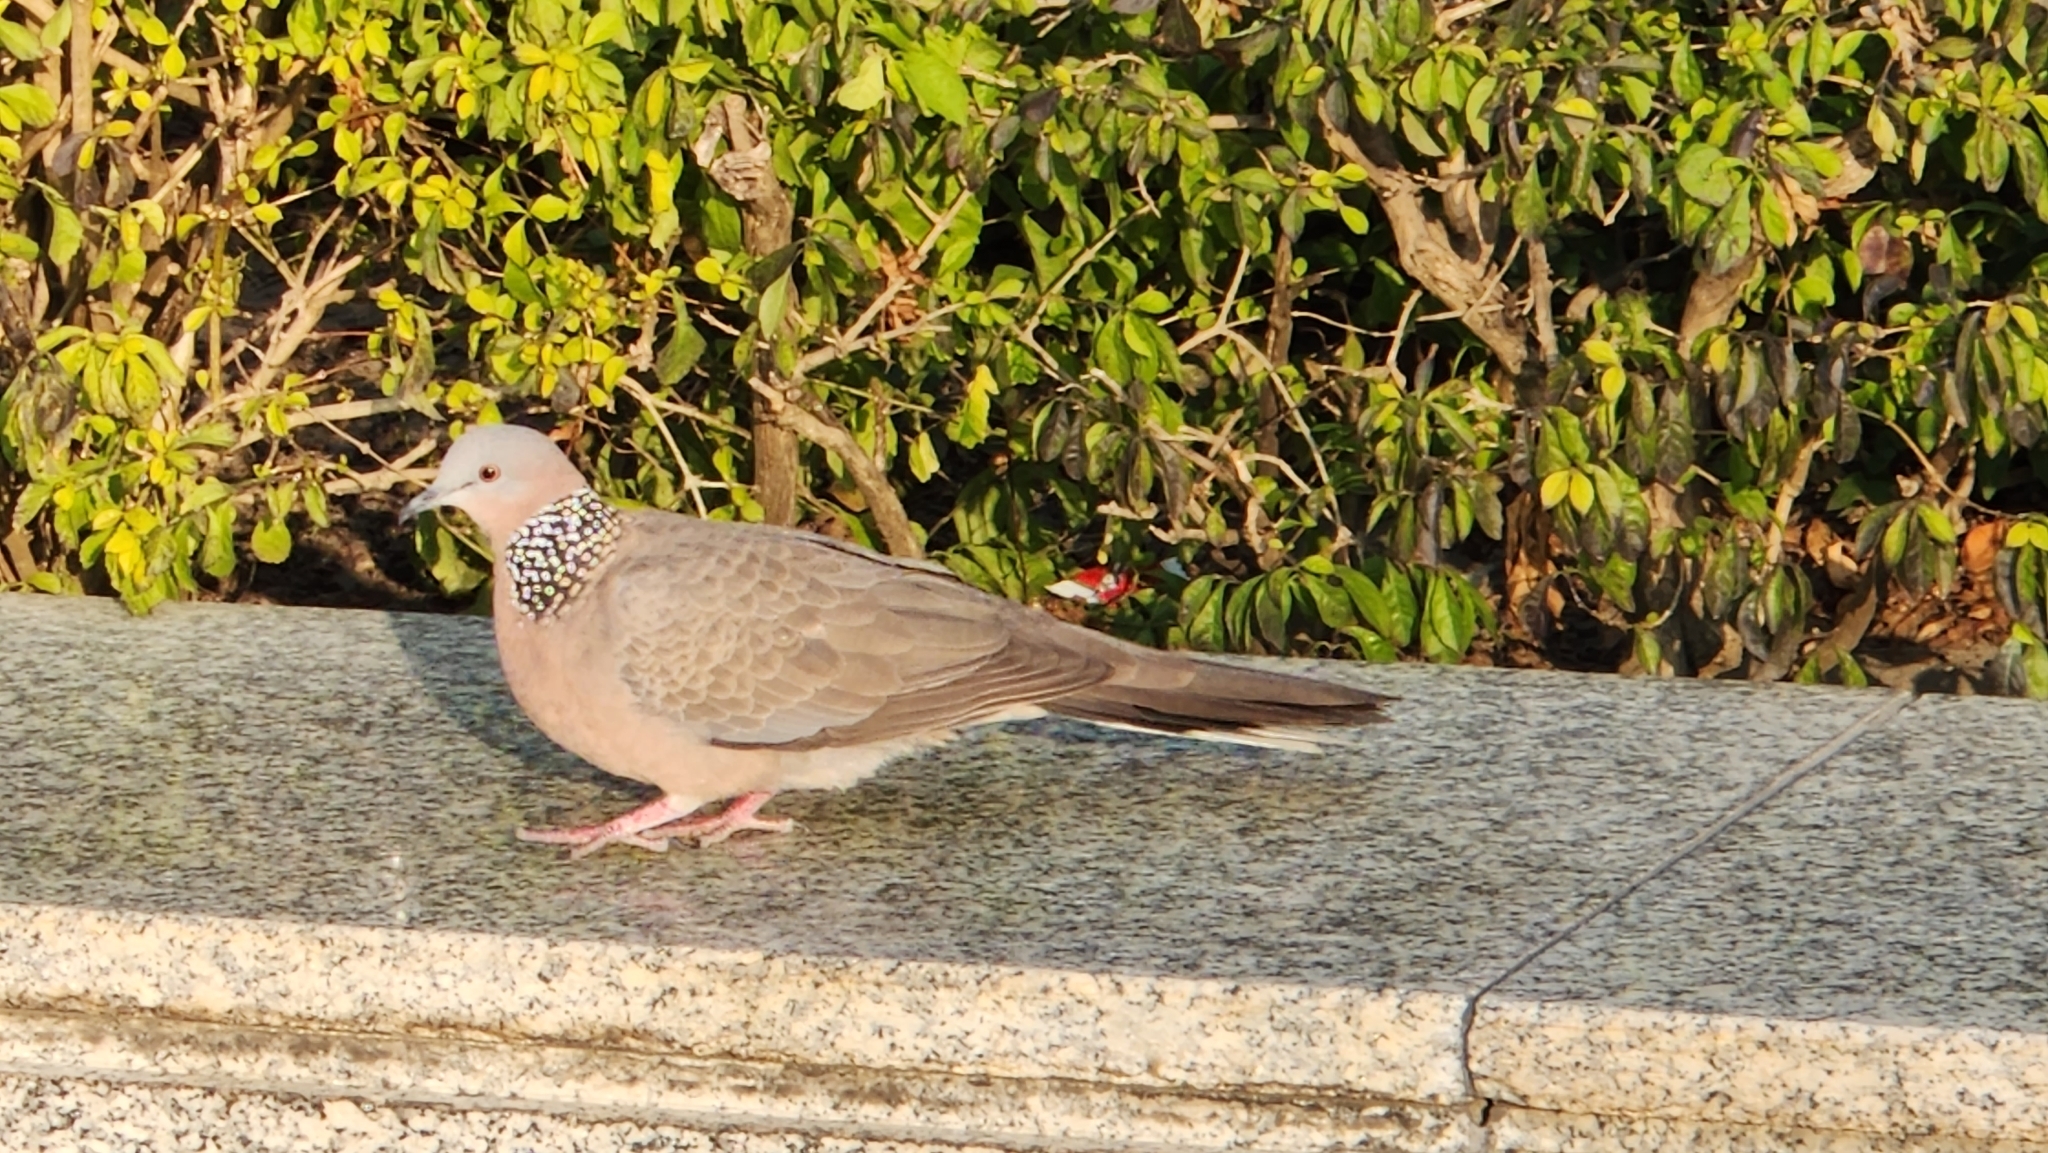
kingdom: Animalia
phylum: Chordata
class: Aves
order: Columbiformes
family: Columbidae
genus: Spilopelia
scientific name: Spilopelia chinensis
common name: Spotted dove
